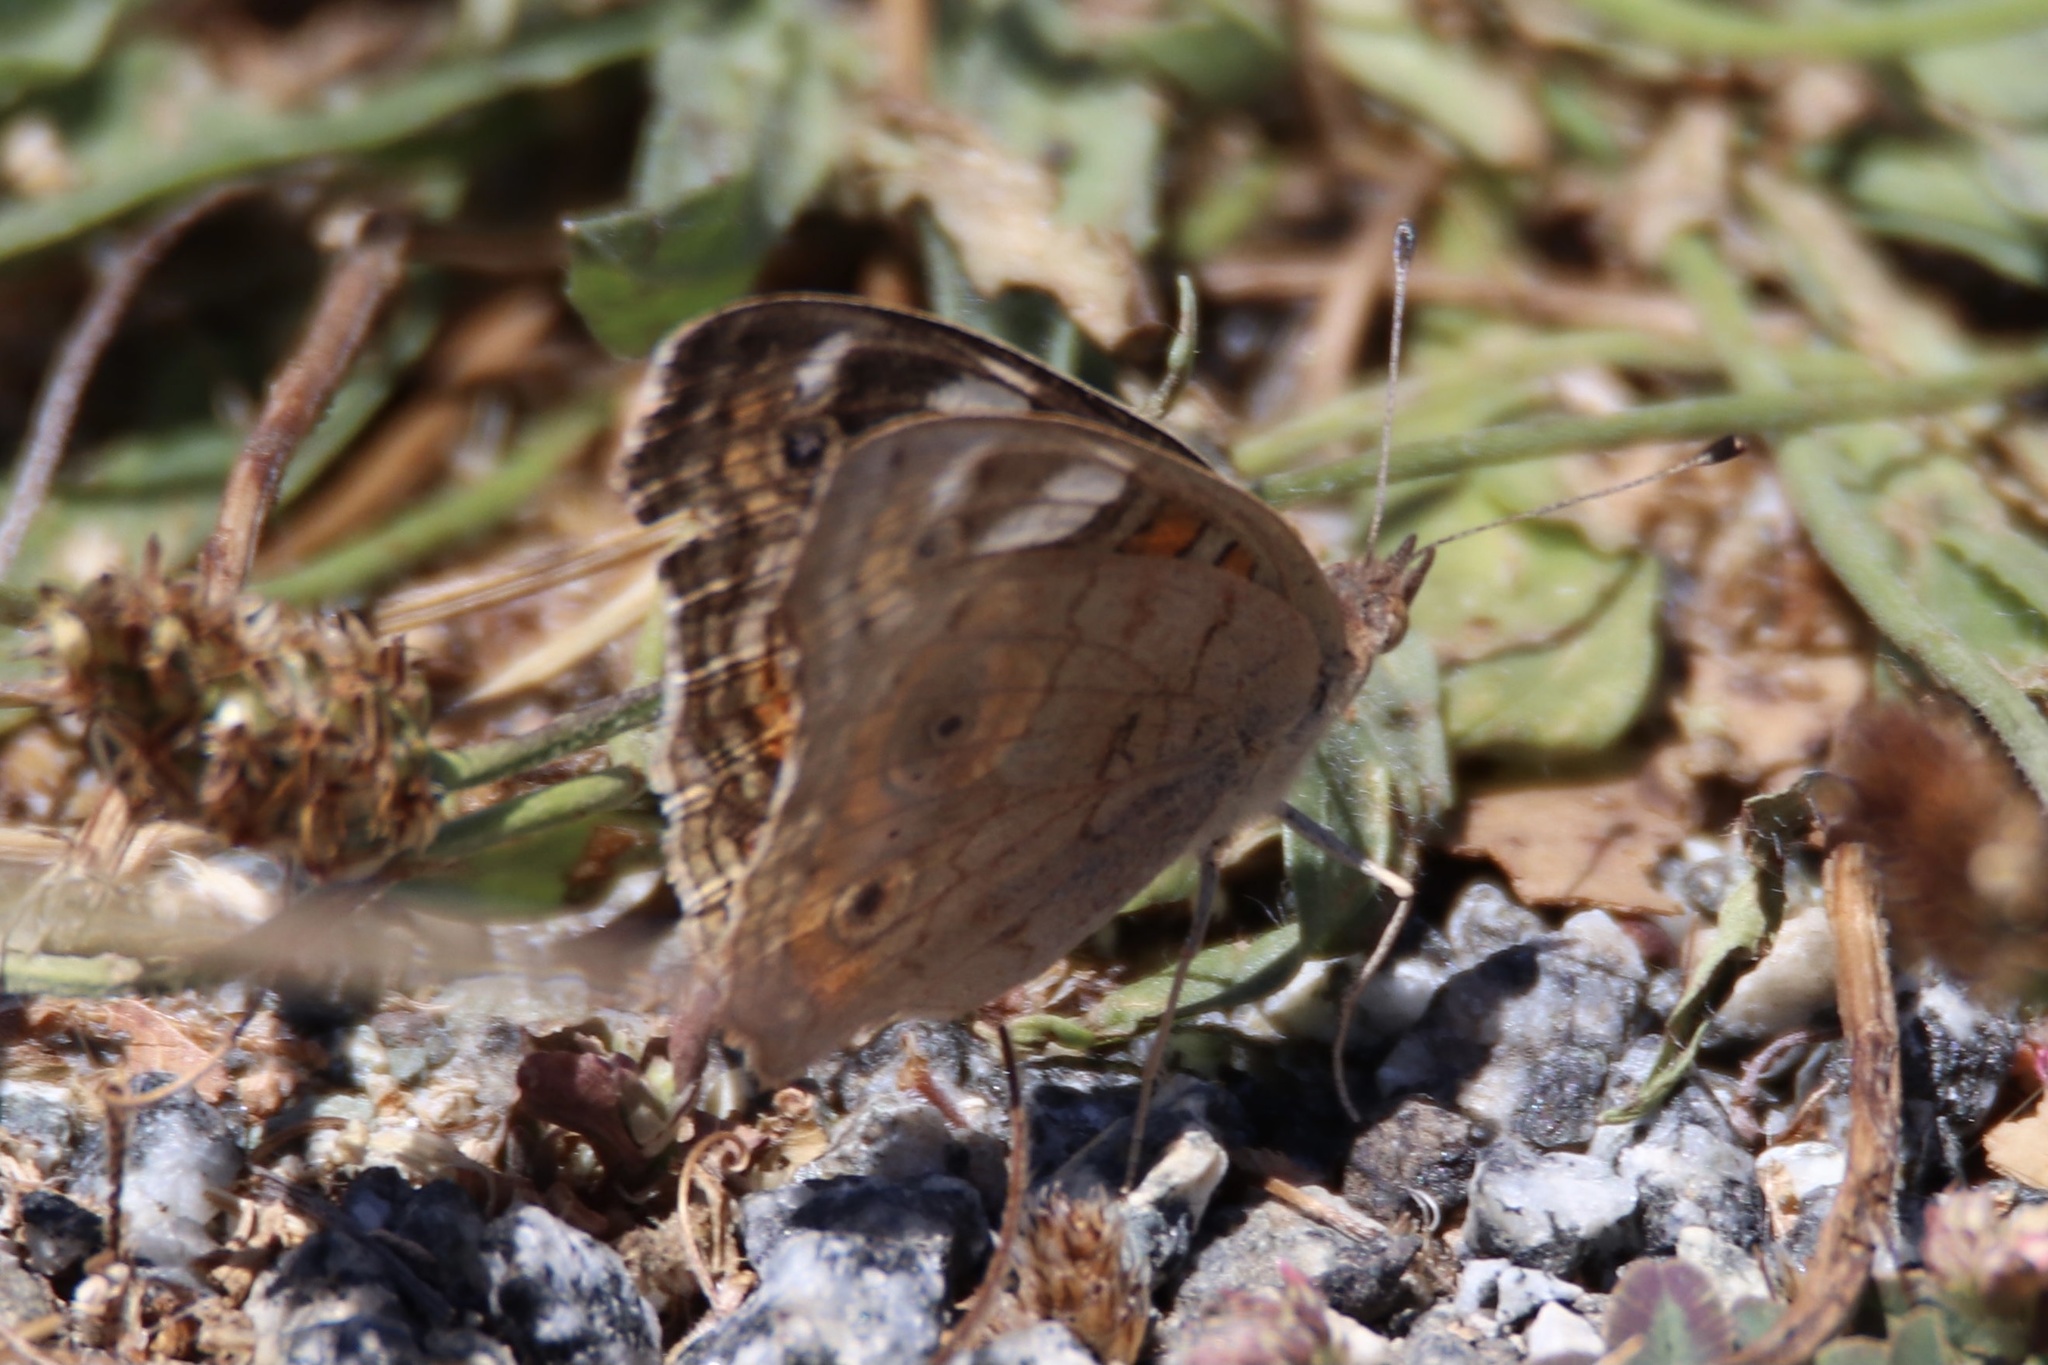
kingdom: Animalia
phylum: Arthropoda
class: Insecta
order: Lepidoptera
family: Nymphalidae
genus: Junonia
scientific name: Junonia grisea
